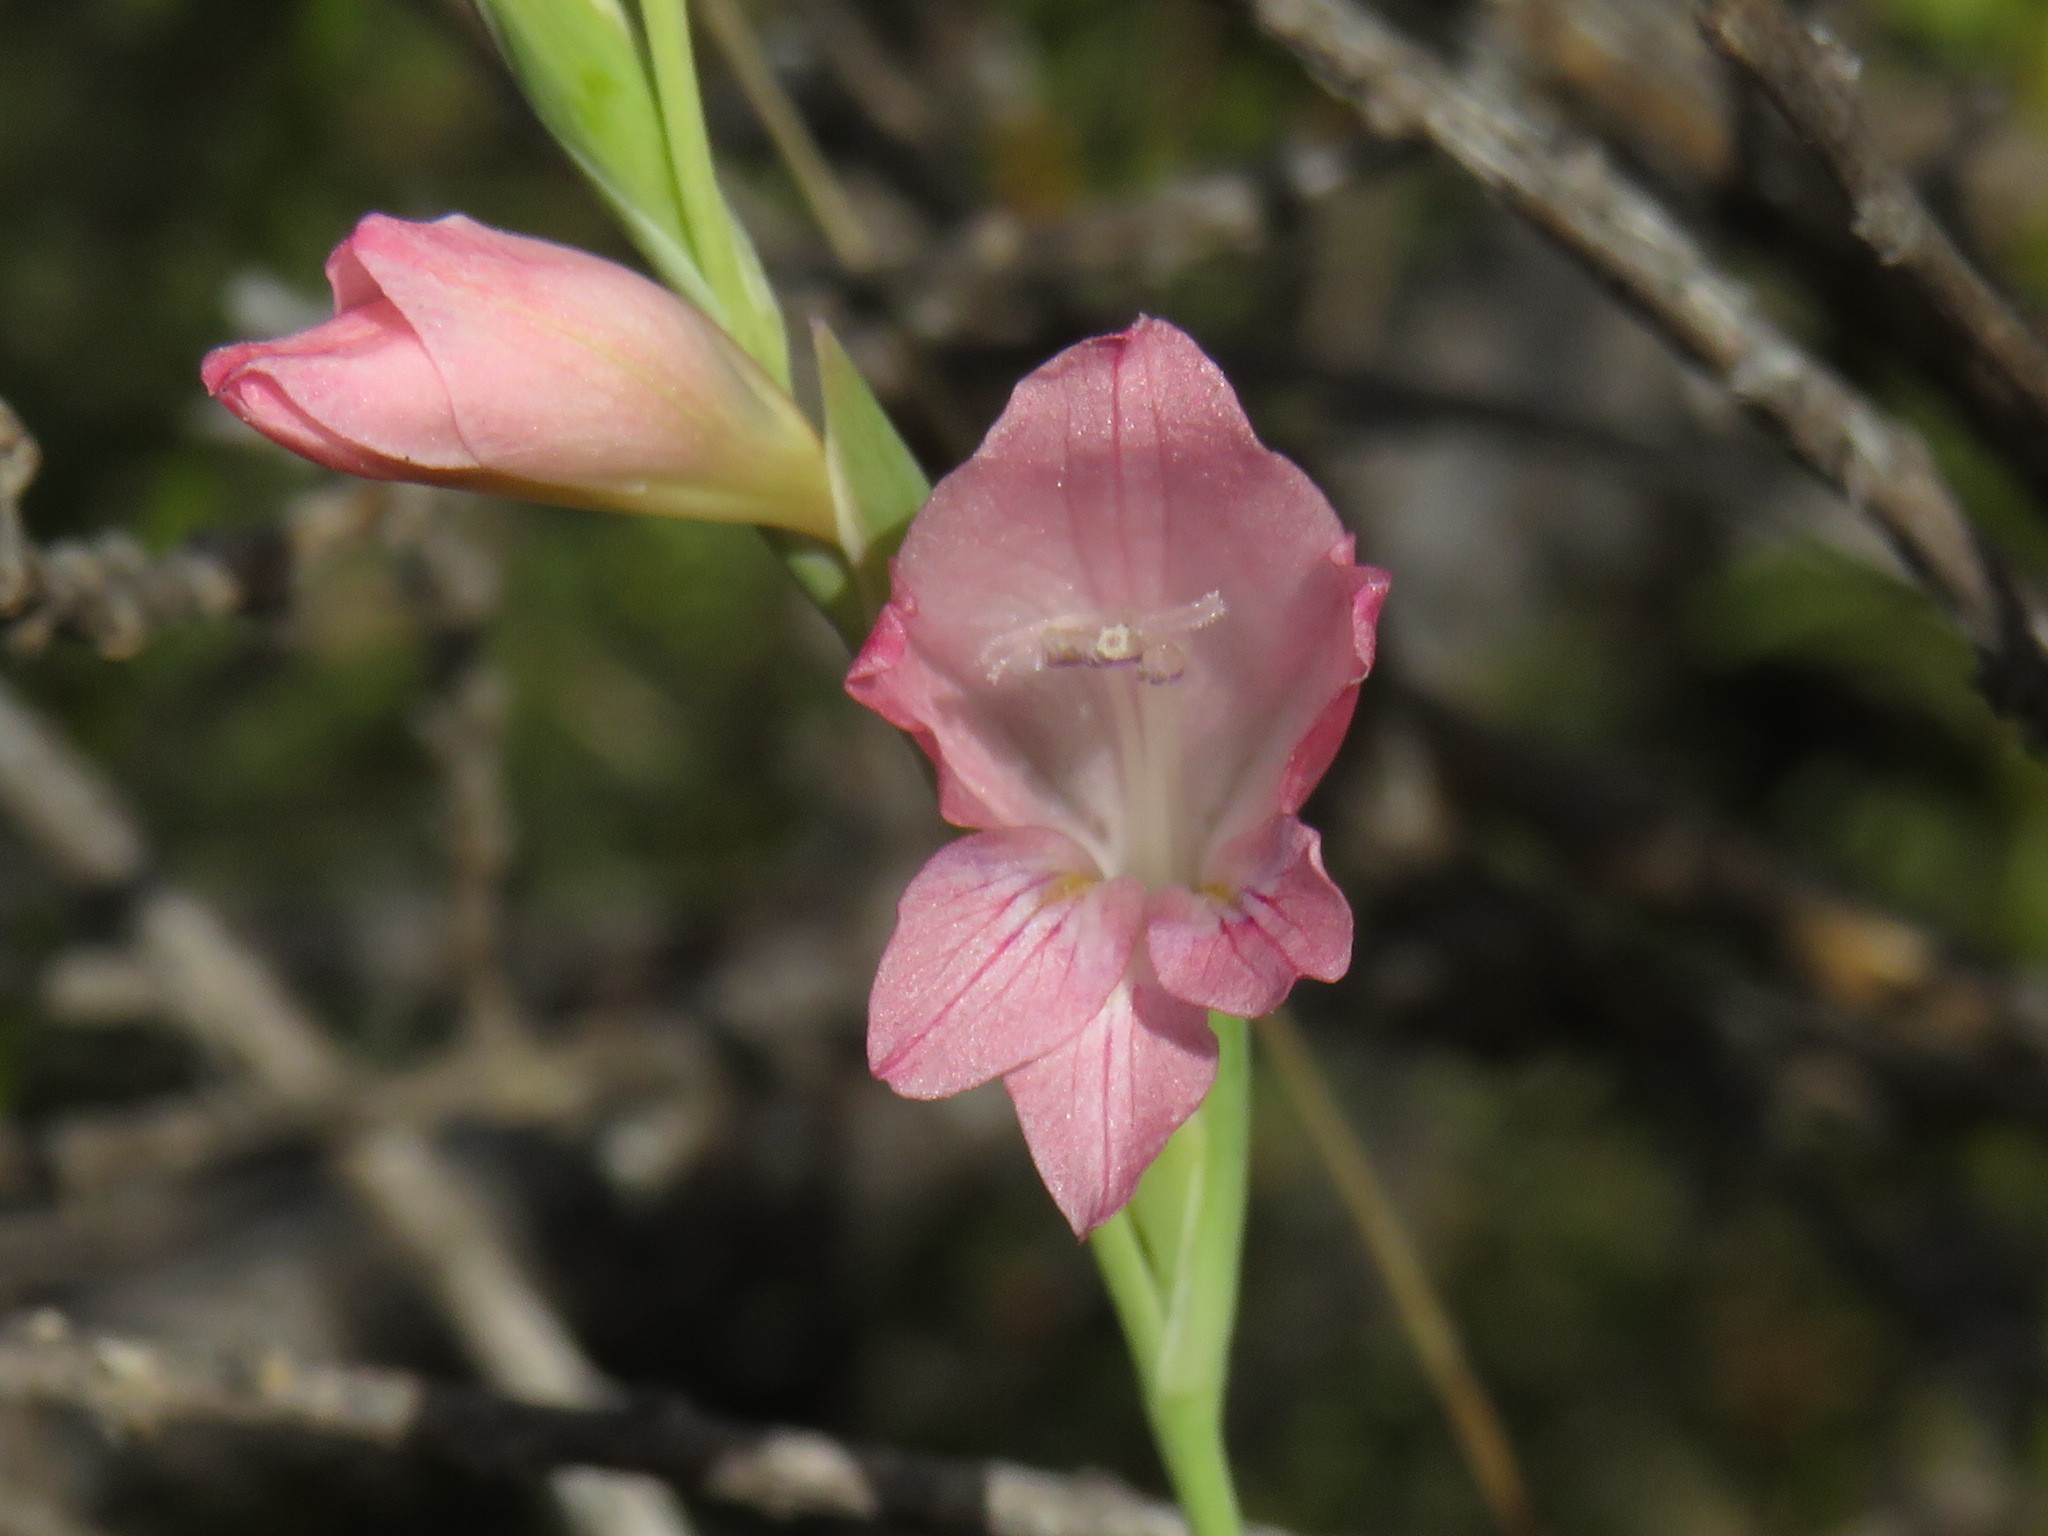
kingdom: Plantae
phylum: Tracheophyta
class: Liliopsida
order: Asparagales
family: Iridaceae
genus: Gladiolus
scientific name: Gladiolus brevifolius
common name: March pypie
